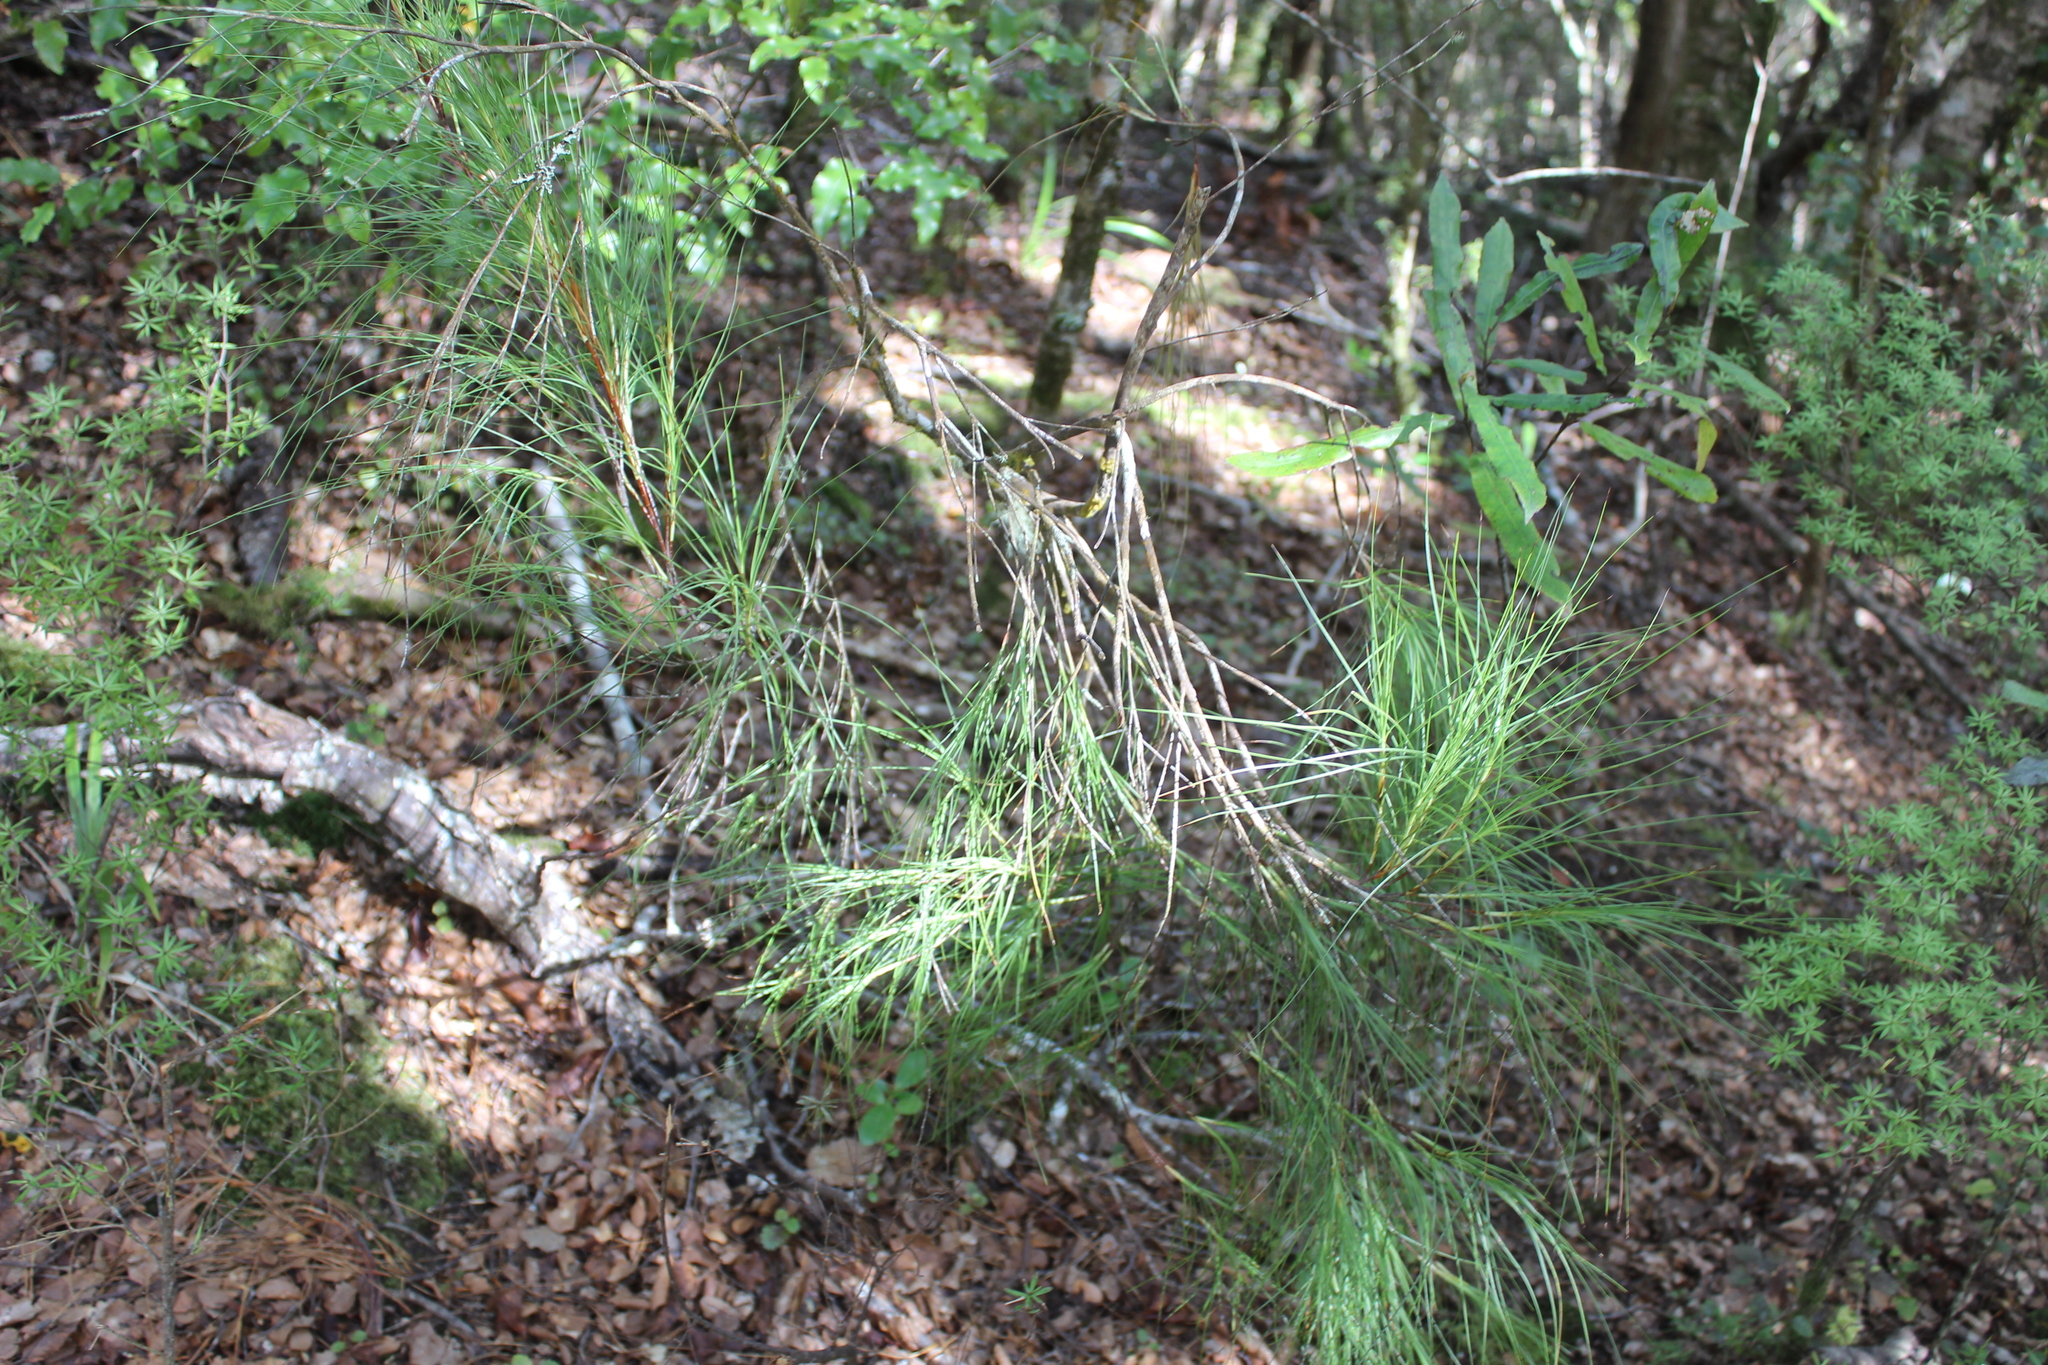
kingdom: Plantae
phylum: Tracheophyta
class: Magnoliopsida
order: Ericales
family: Ericaceae
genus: Dracophyllum
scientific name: Dracophyllum filifolium
